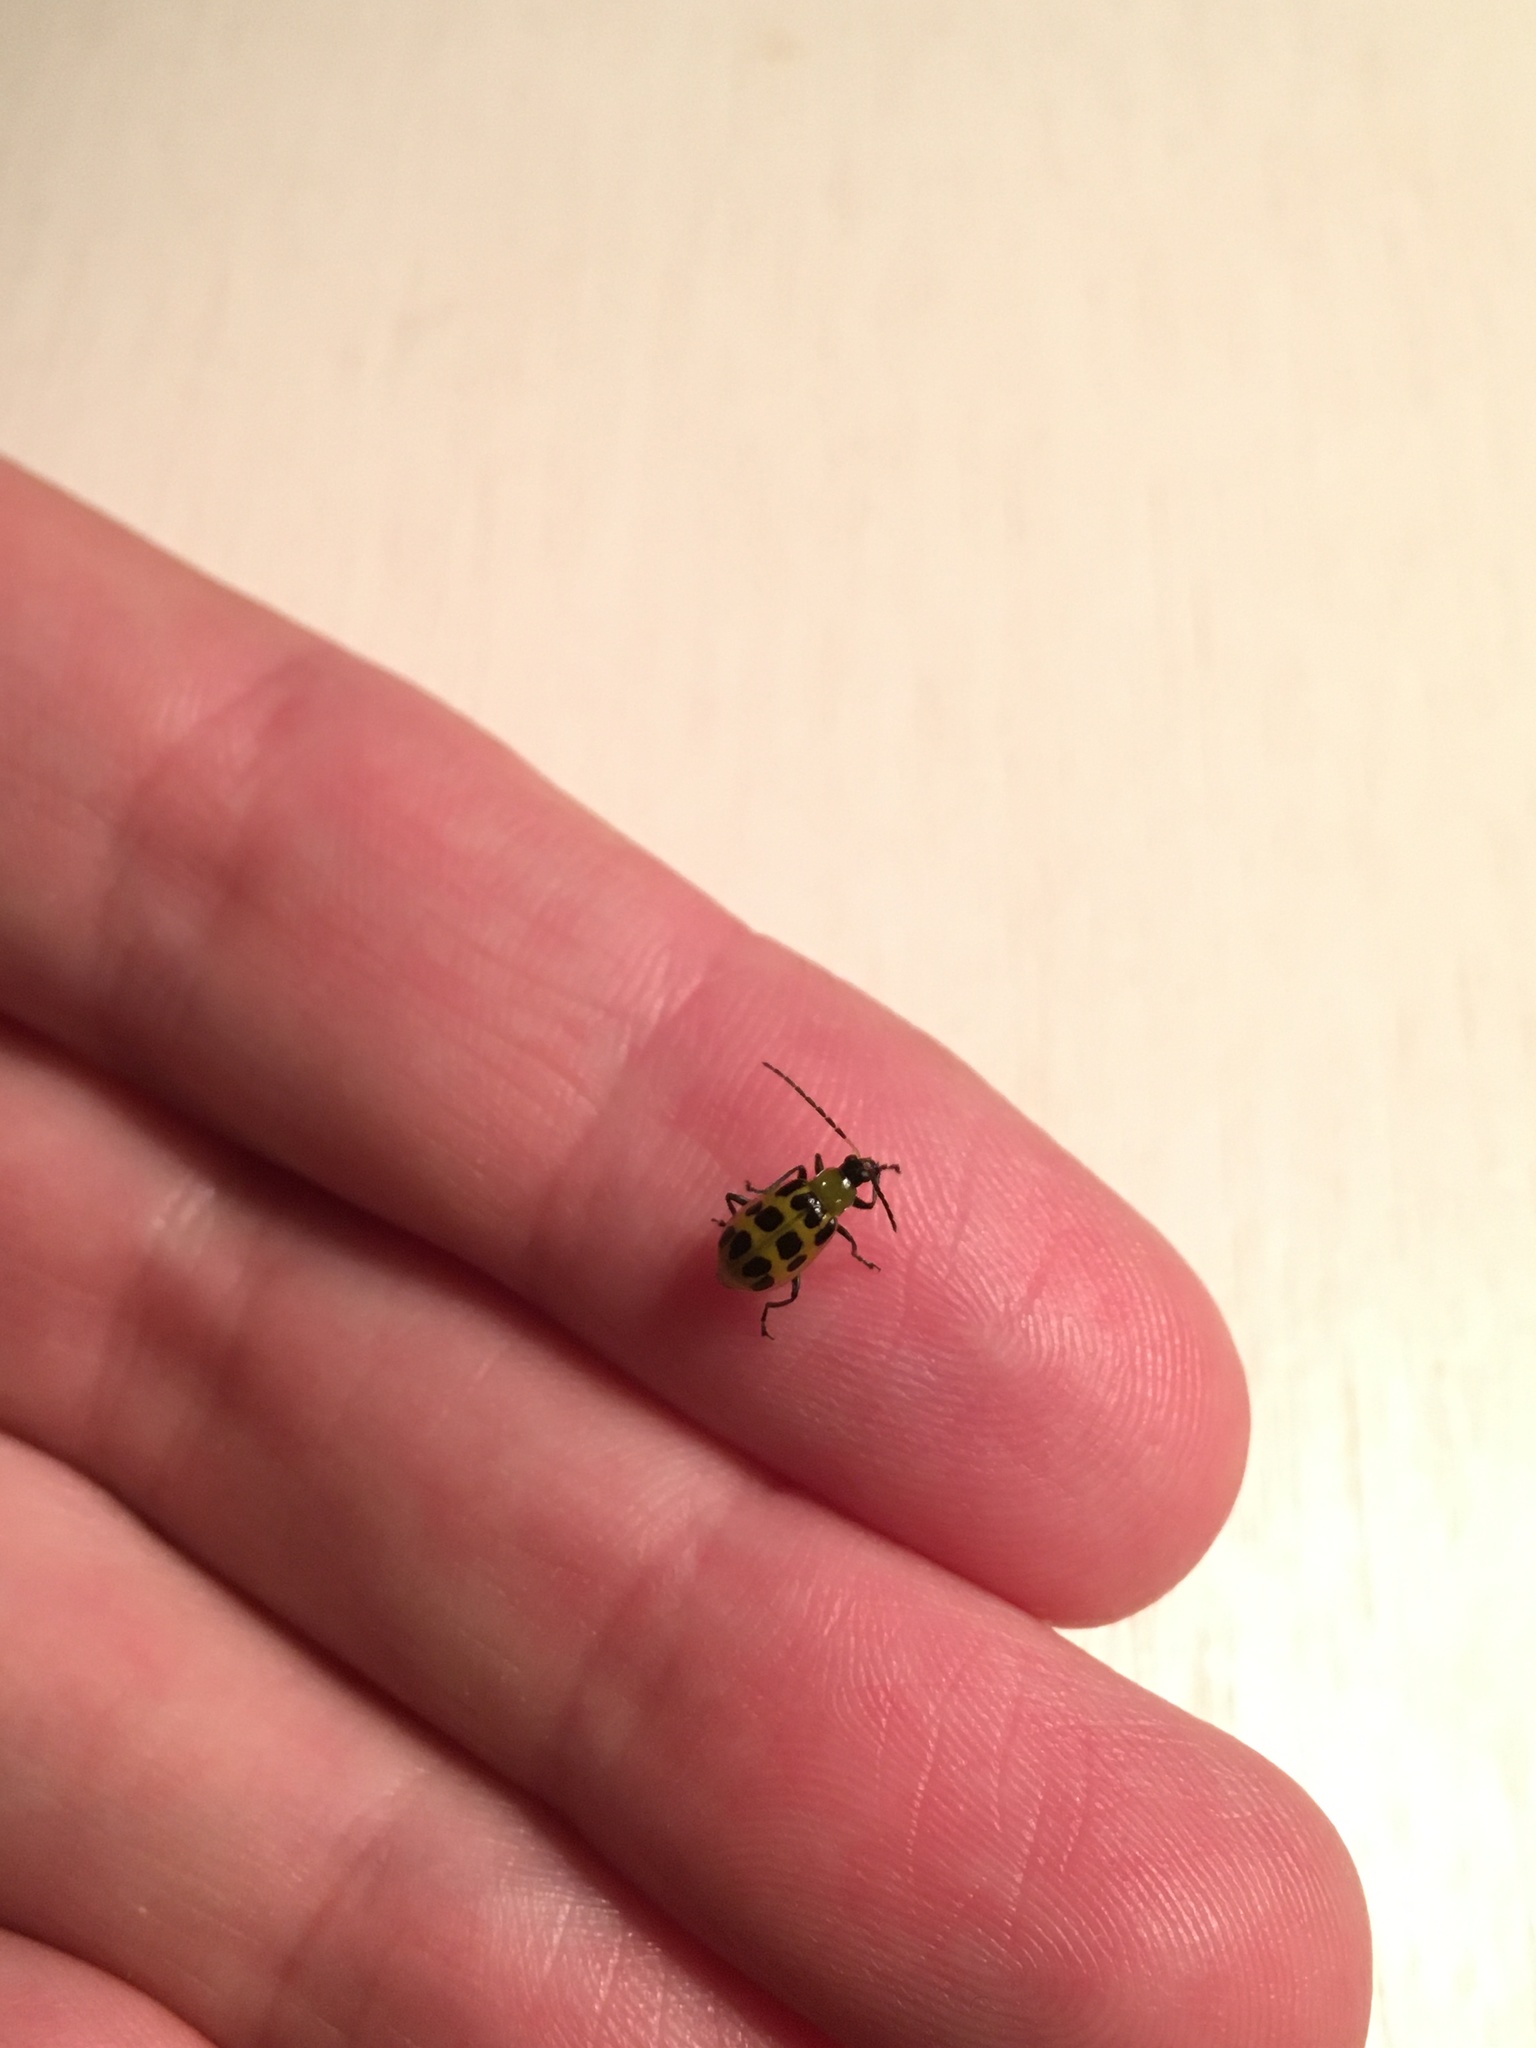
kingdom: Animalia
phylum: Arthropoda
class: Insecta
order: Coleoptera
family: Chrysomelidae
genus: Diabrotica
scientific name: Diabrotica undecimpunctata
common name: Spotted cucumber beetle
